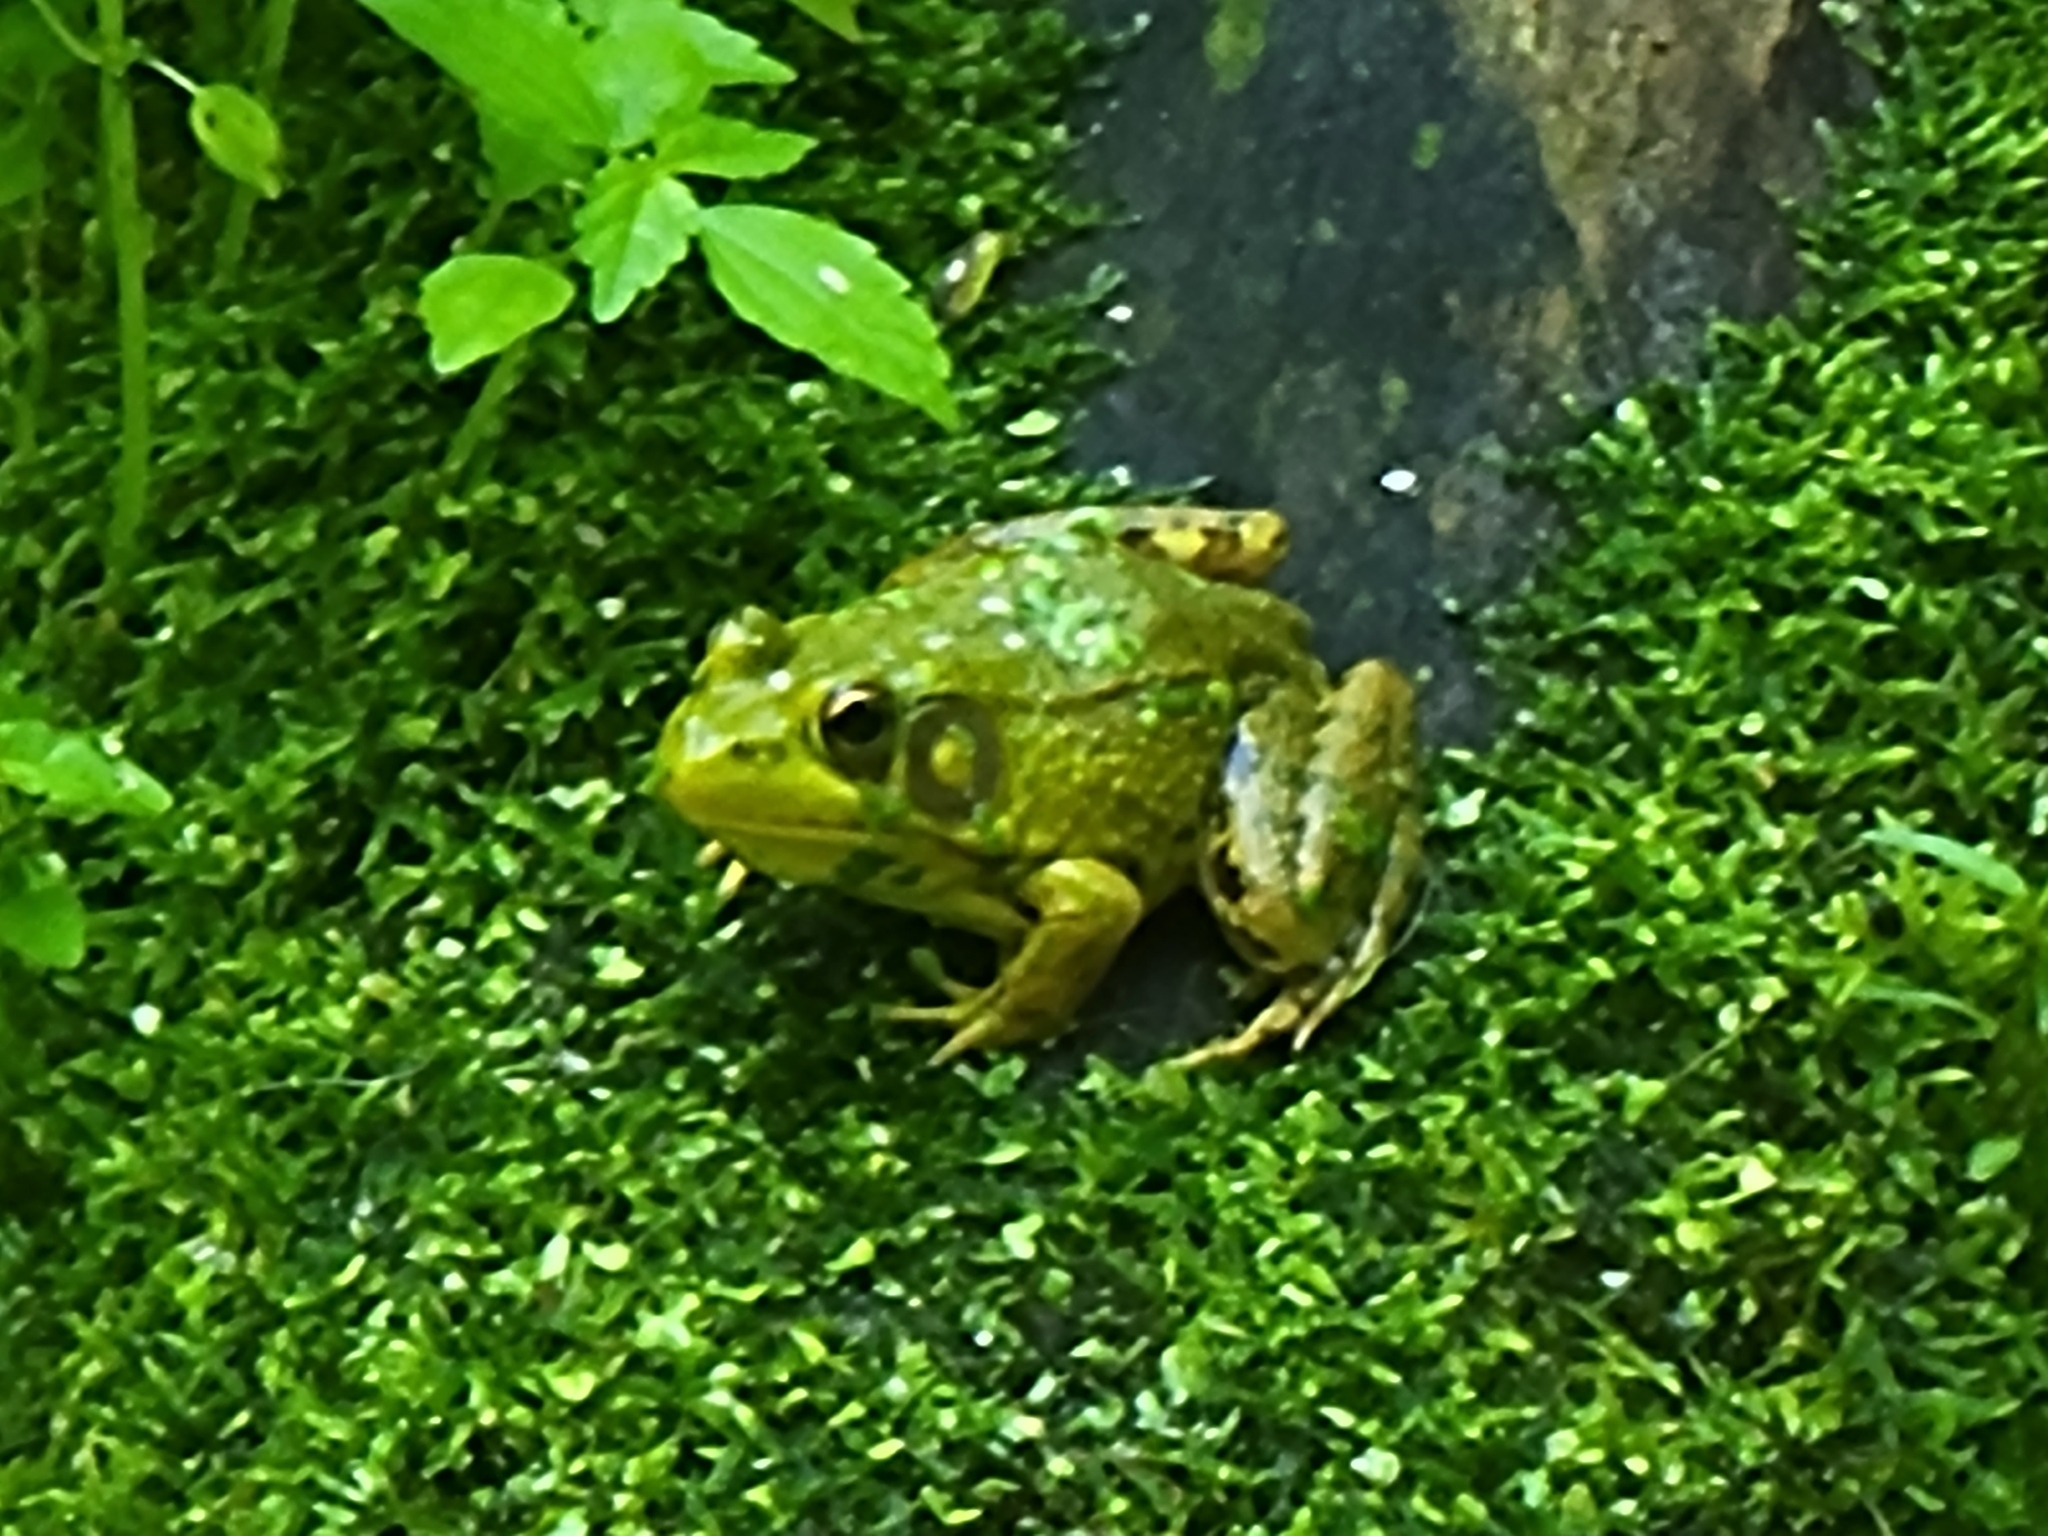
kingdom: Animalia
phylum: Chordata
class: Amphibia
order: Anura
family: Ranidae
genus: Lithobates
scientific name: Lithobates clamitans
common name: Green frog
